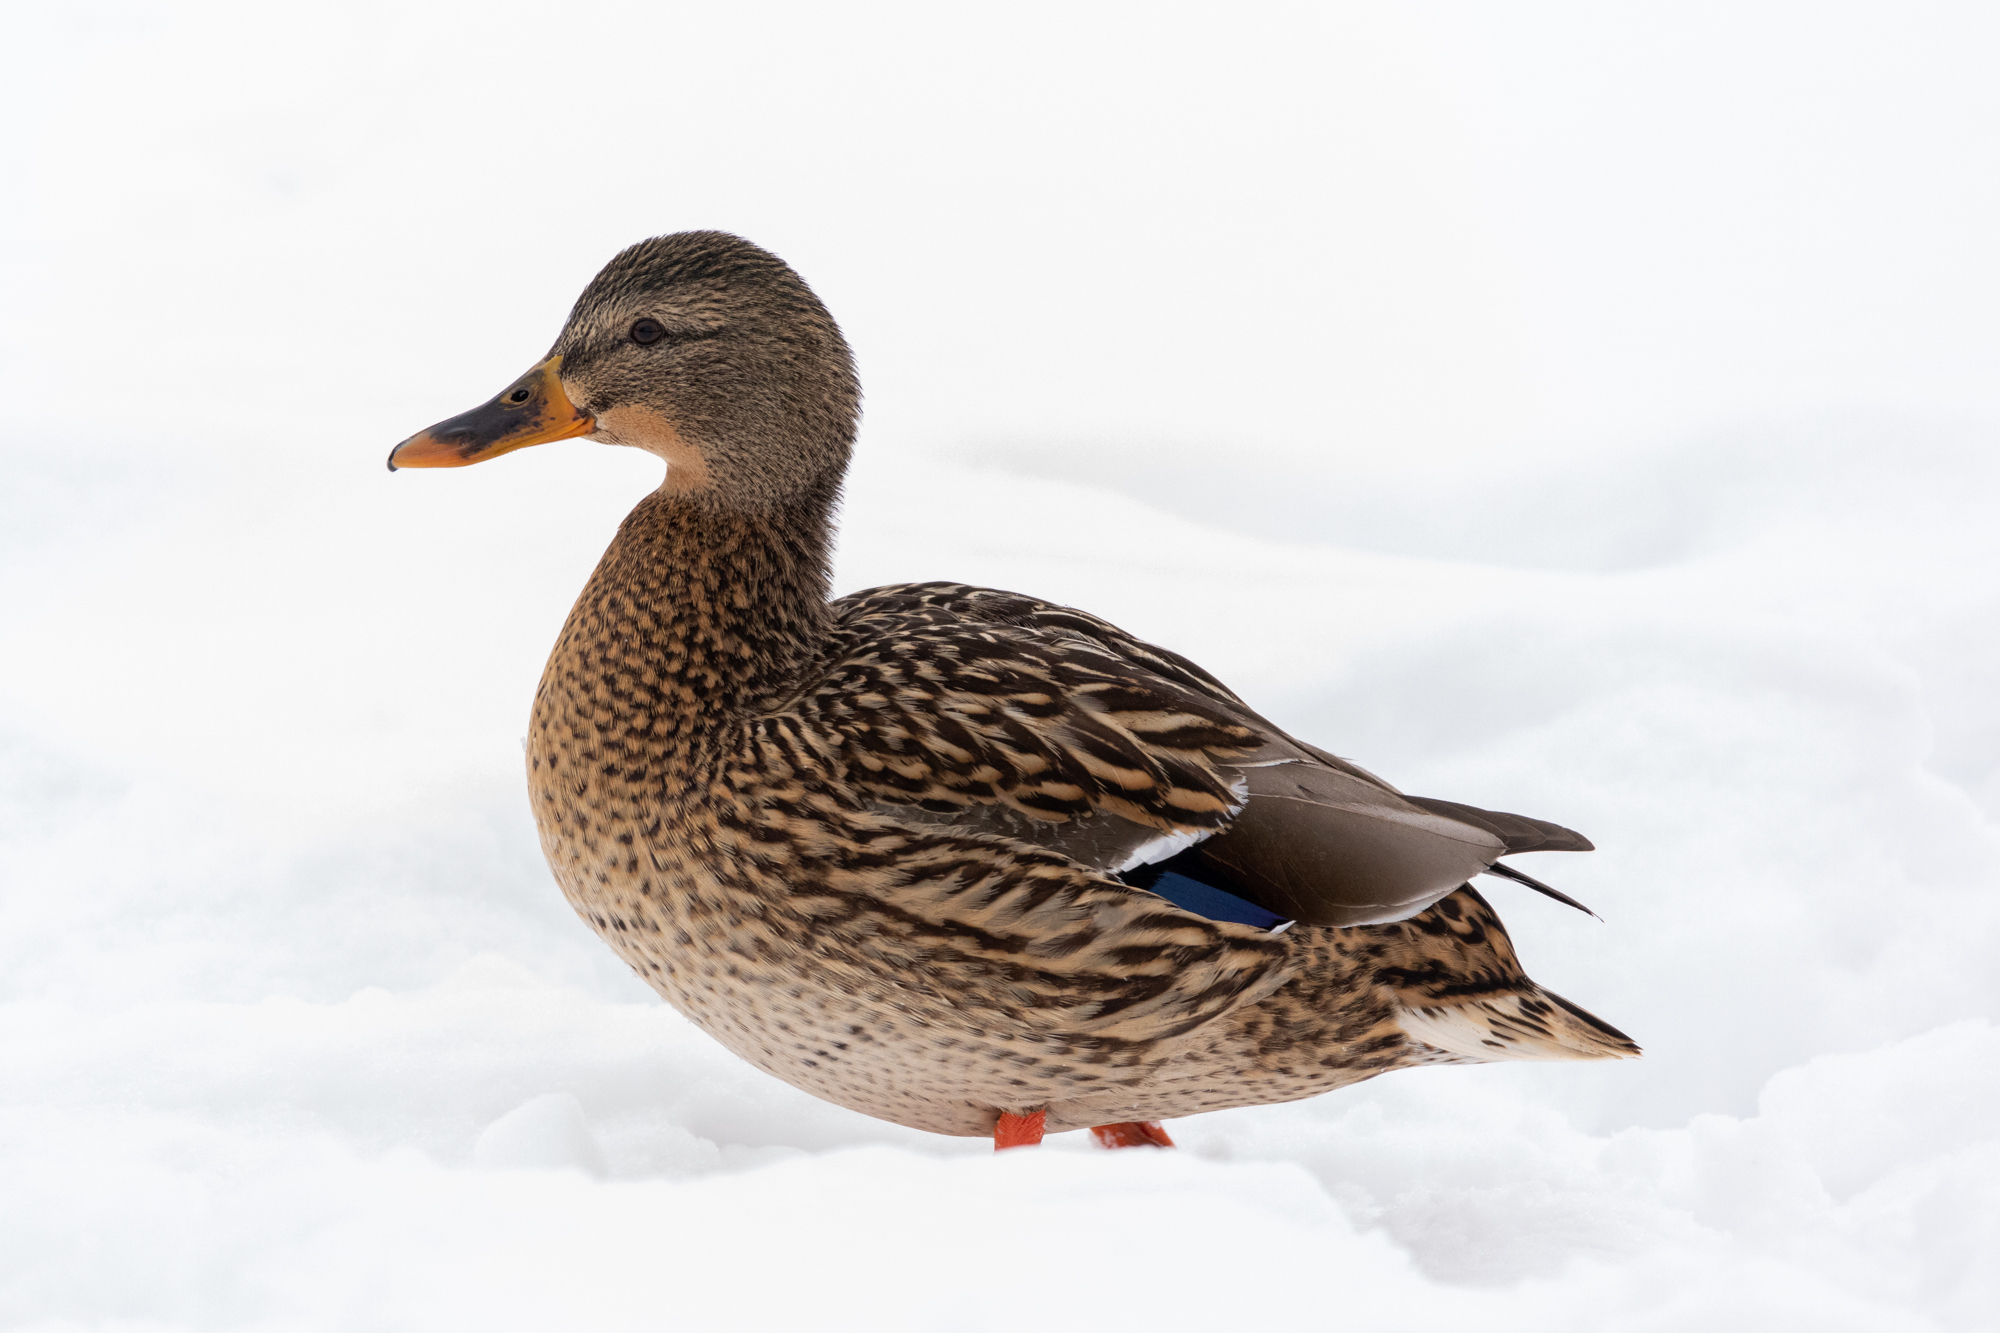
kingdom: Animalia
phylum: Chordata
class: Aves
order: Anseriformes
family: Anatidae
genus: Anas
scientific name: Anas platyrhynchos
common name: Mallard
